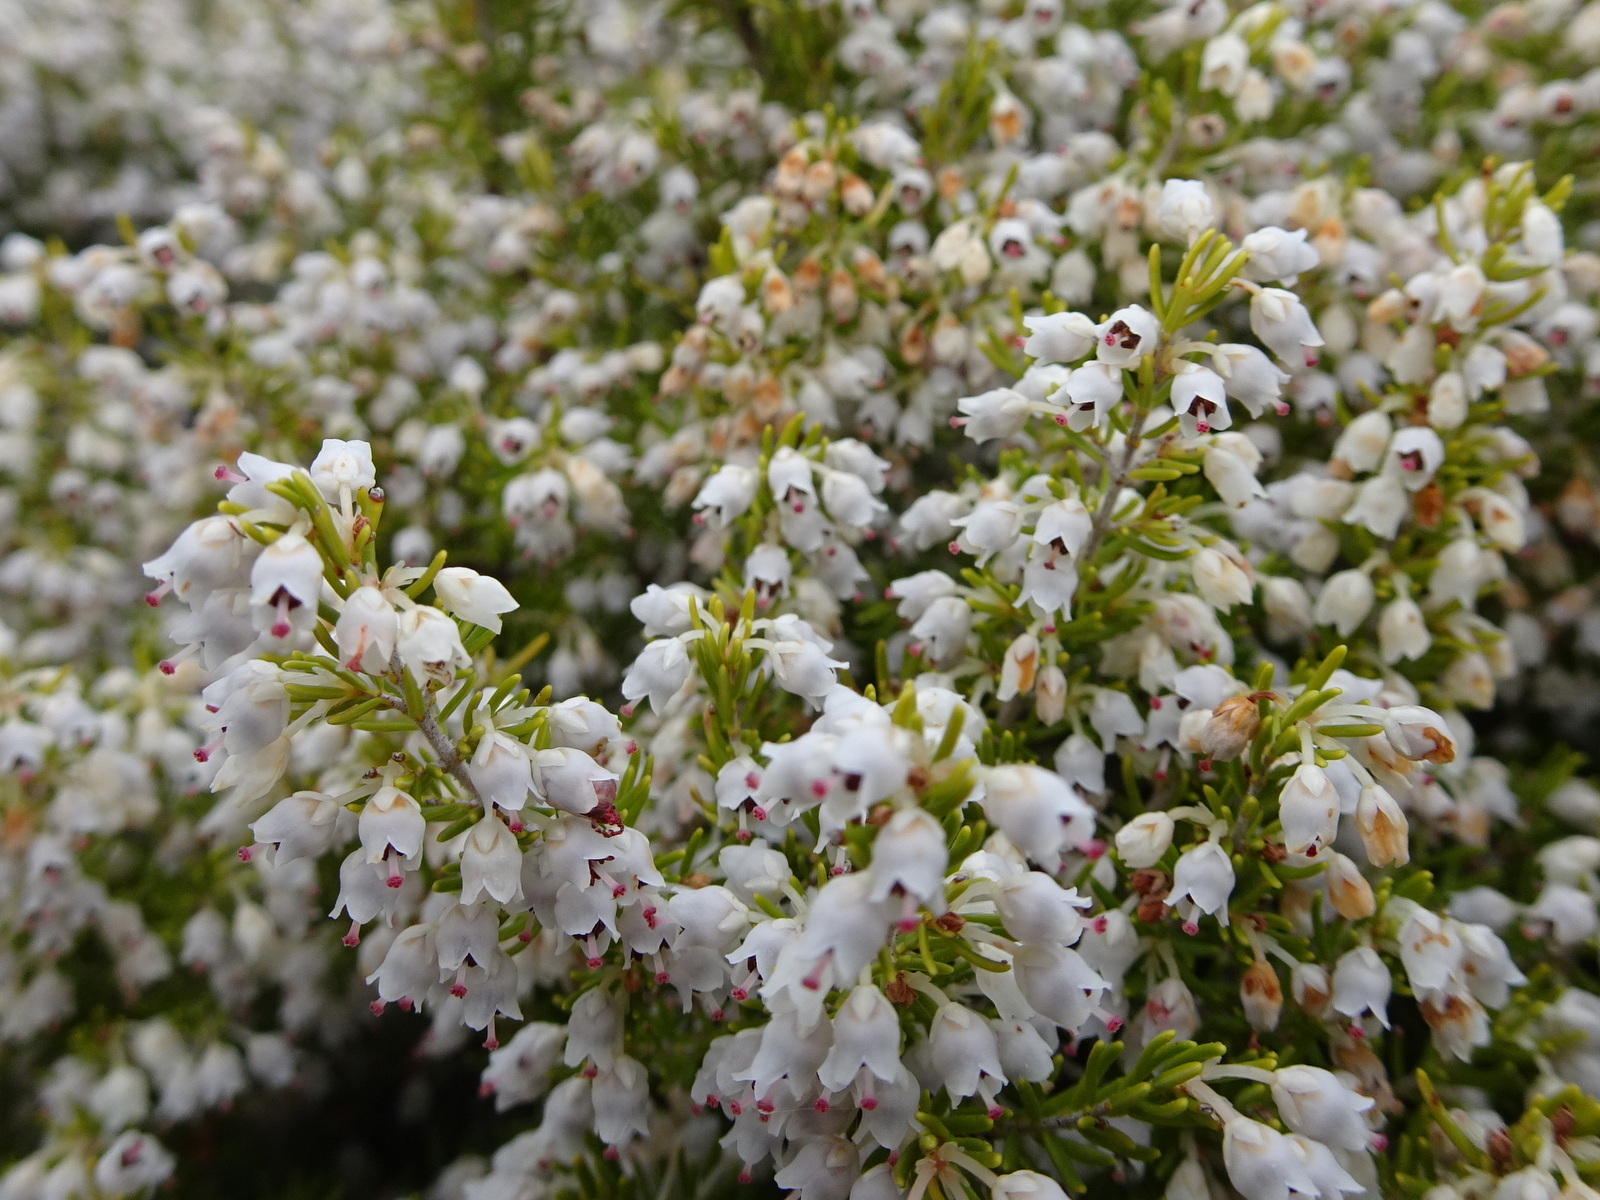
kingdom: Plantae
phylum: Tracheophyta
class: Magnoliopsida
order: Ericales
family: Ericaceae
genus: Erica
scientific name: Erica arborea
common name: Tree heath
